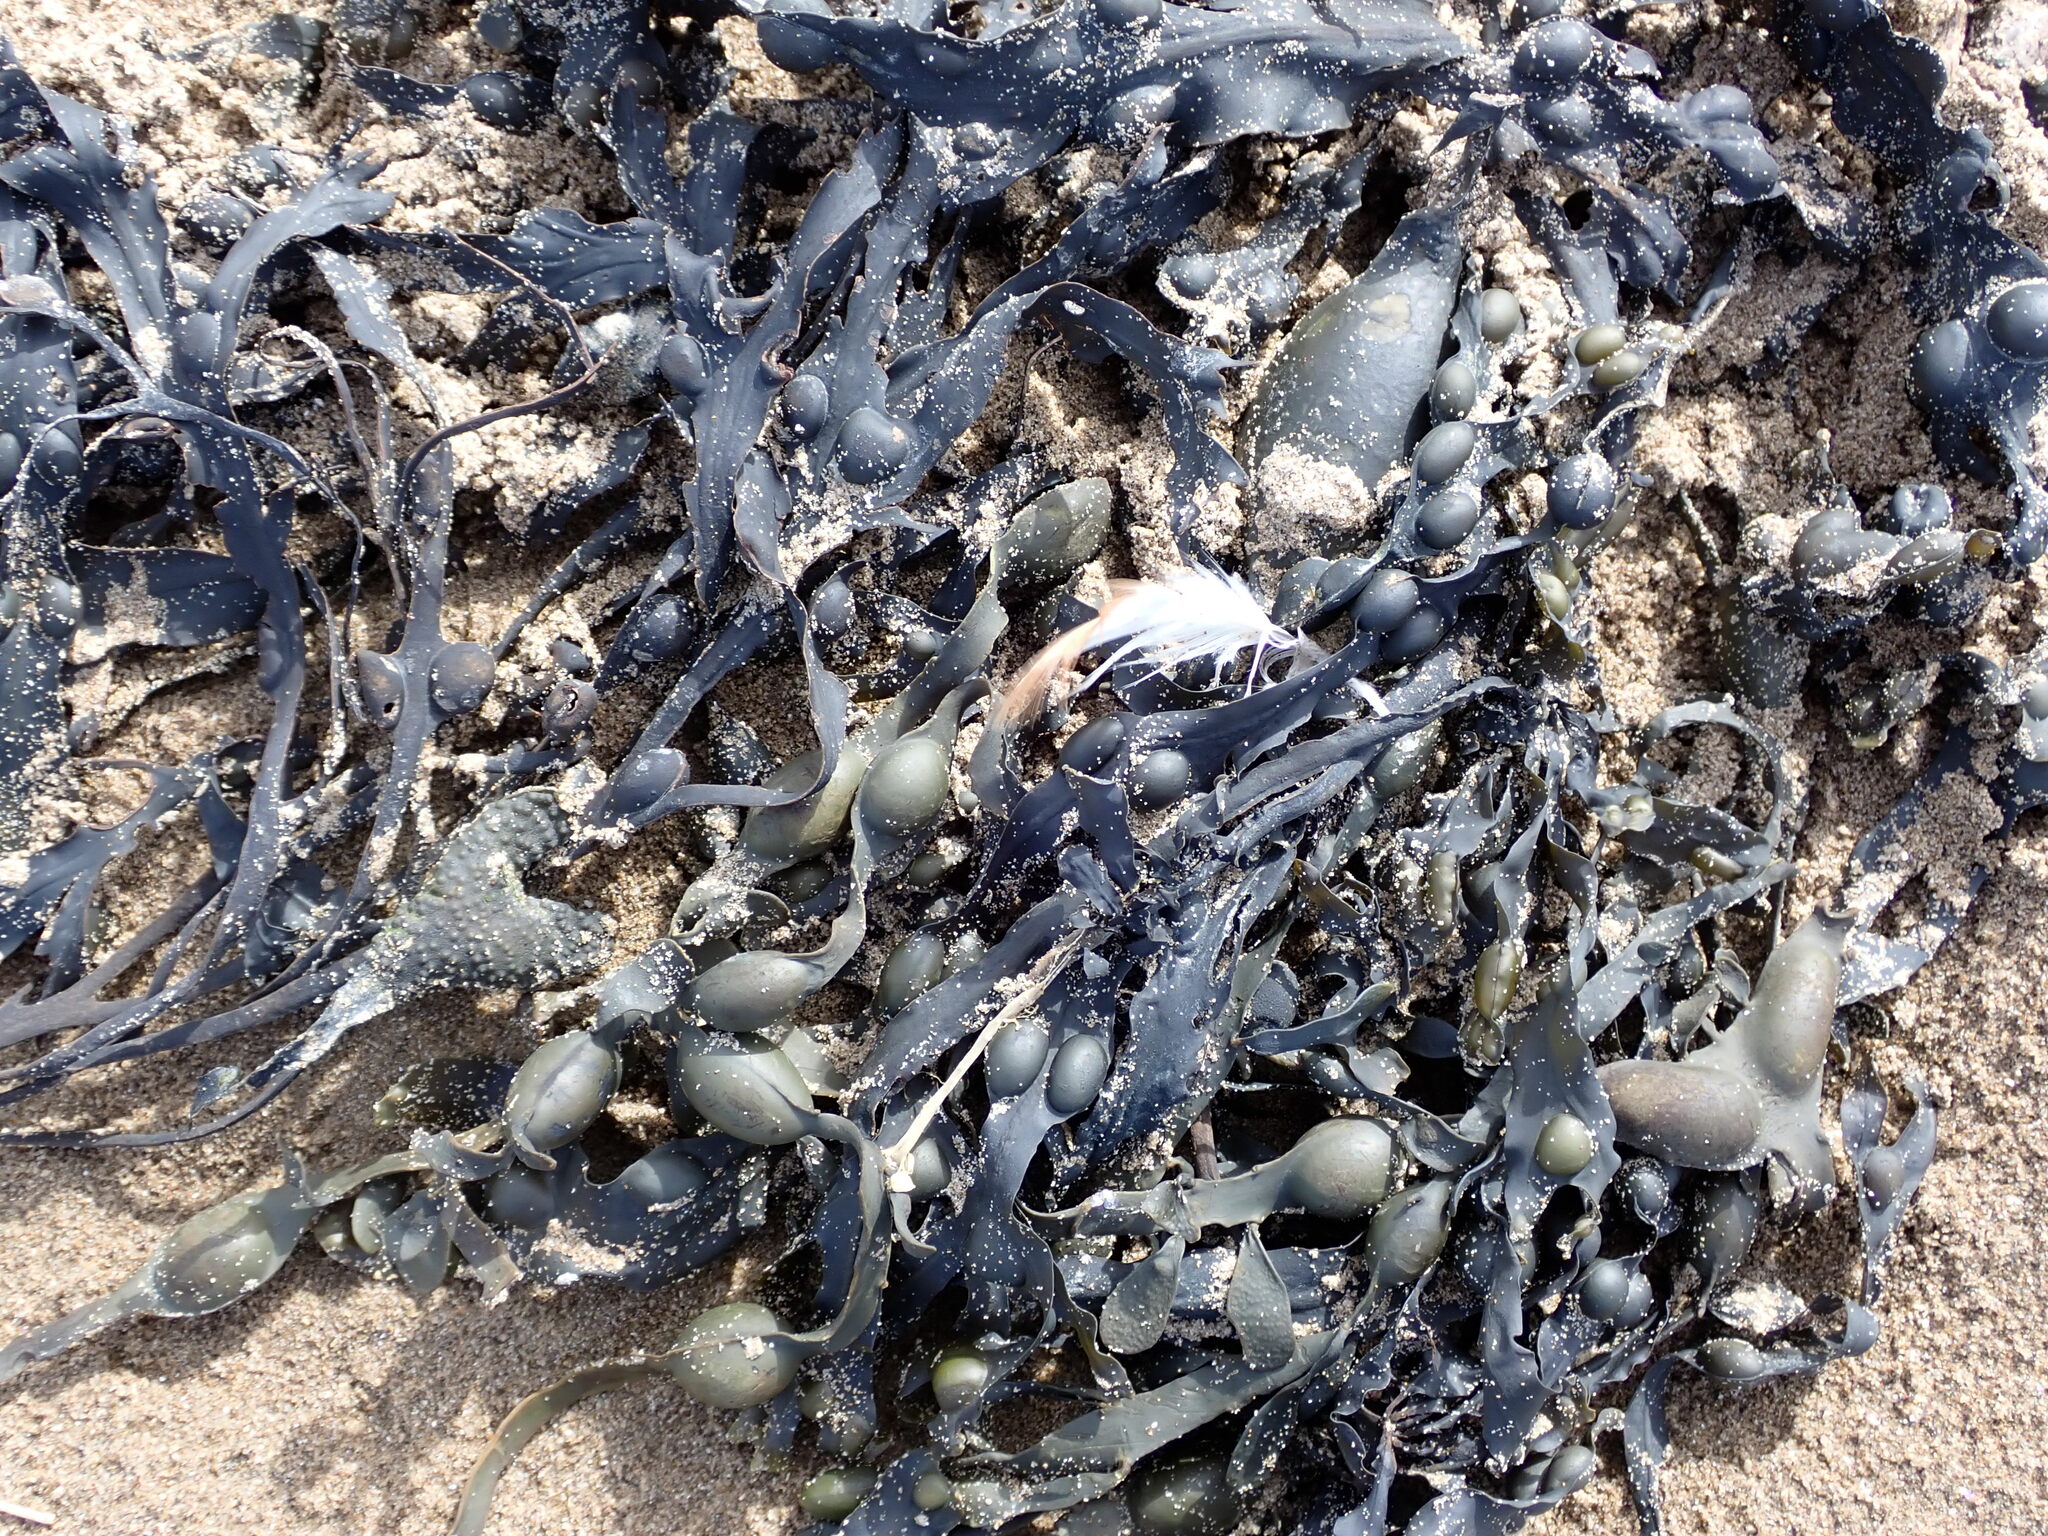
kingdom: Chromista
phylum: Ochrophyta
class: Phaeophyceae
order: Fucales
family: Fucaceae
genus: Ascophyllum
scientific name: Ascophyllum nodosum
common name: Knotted wrack
